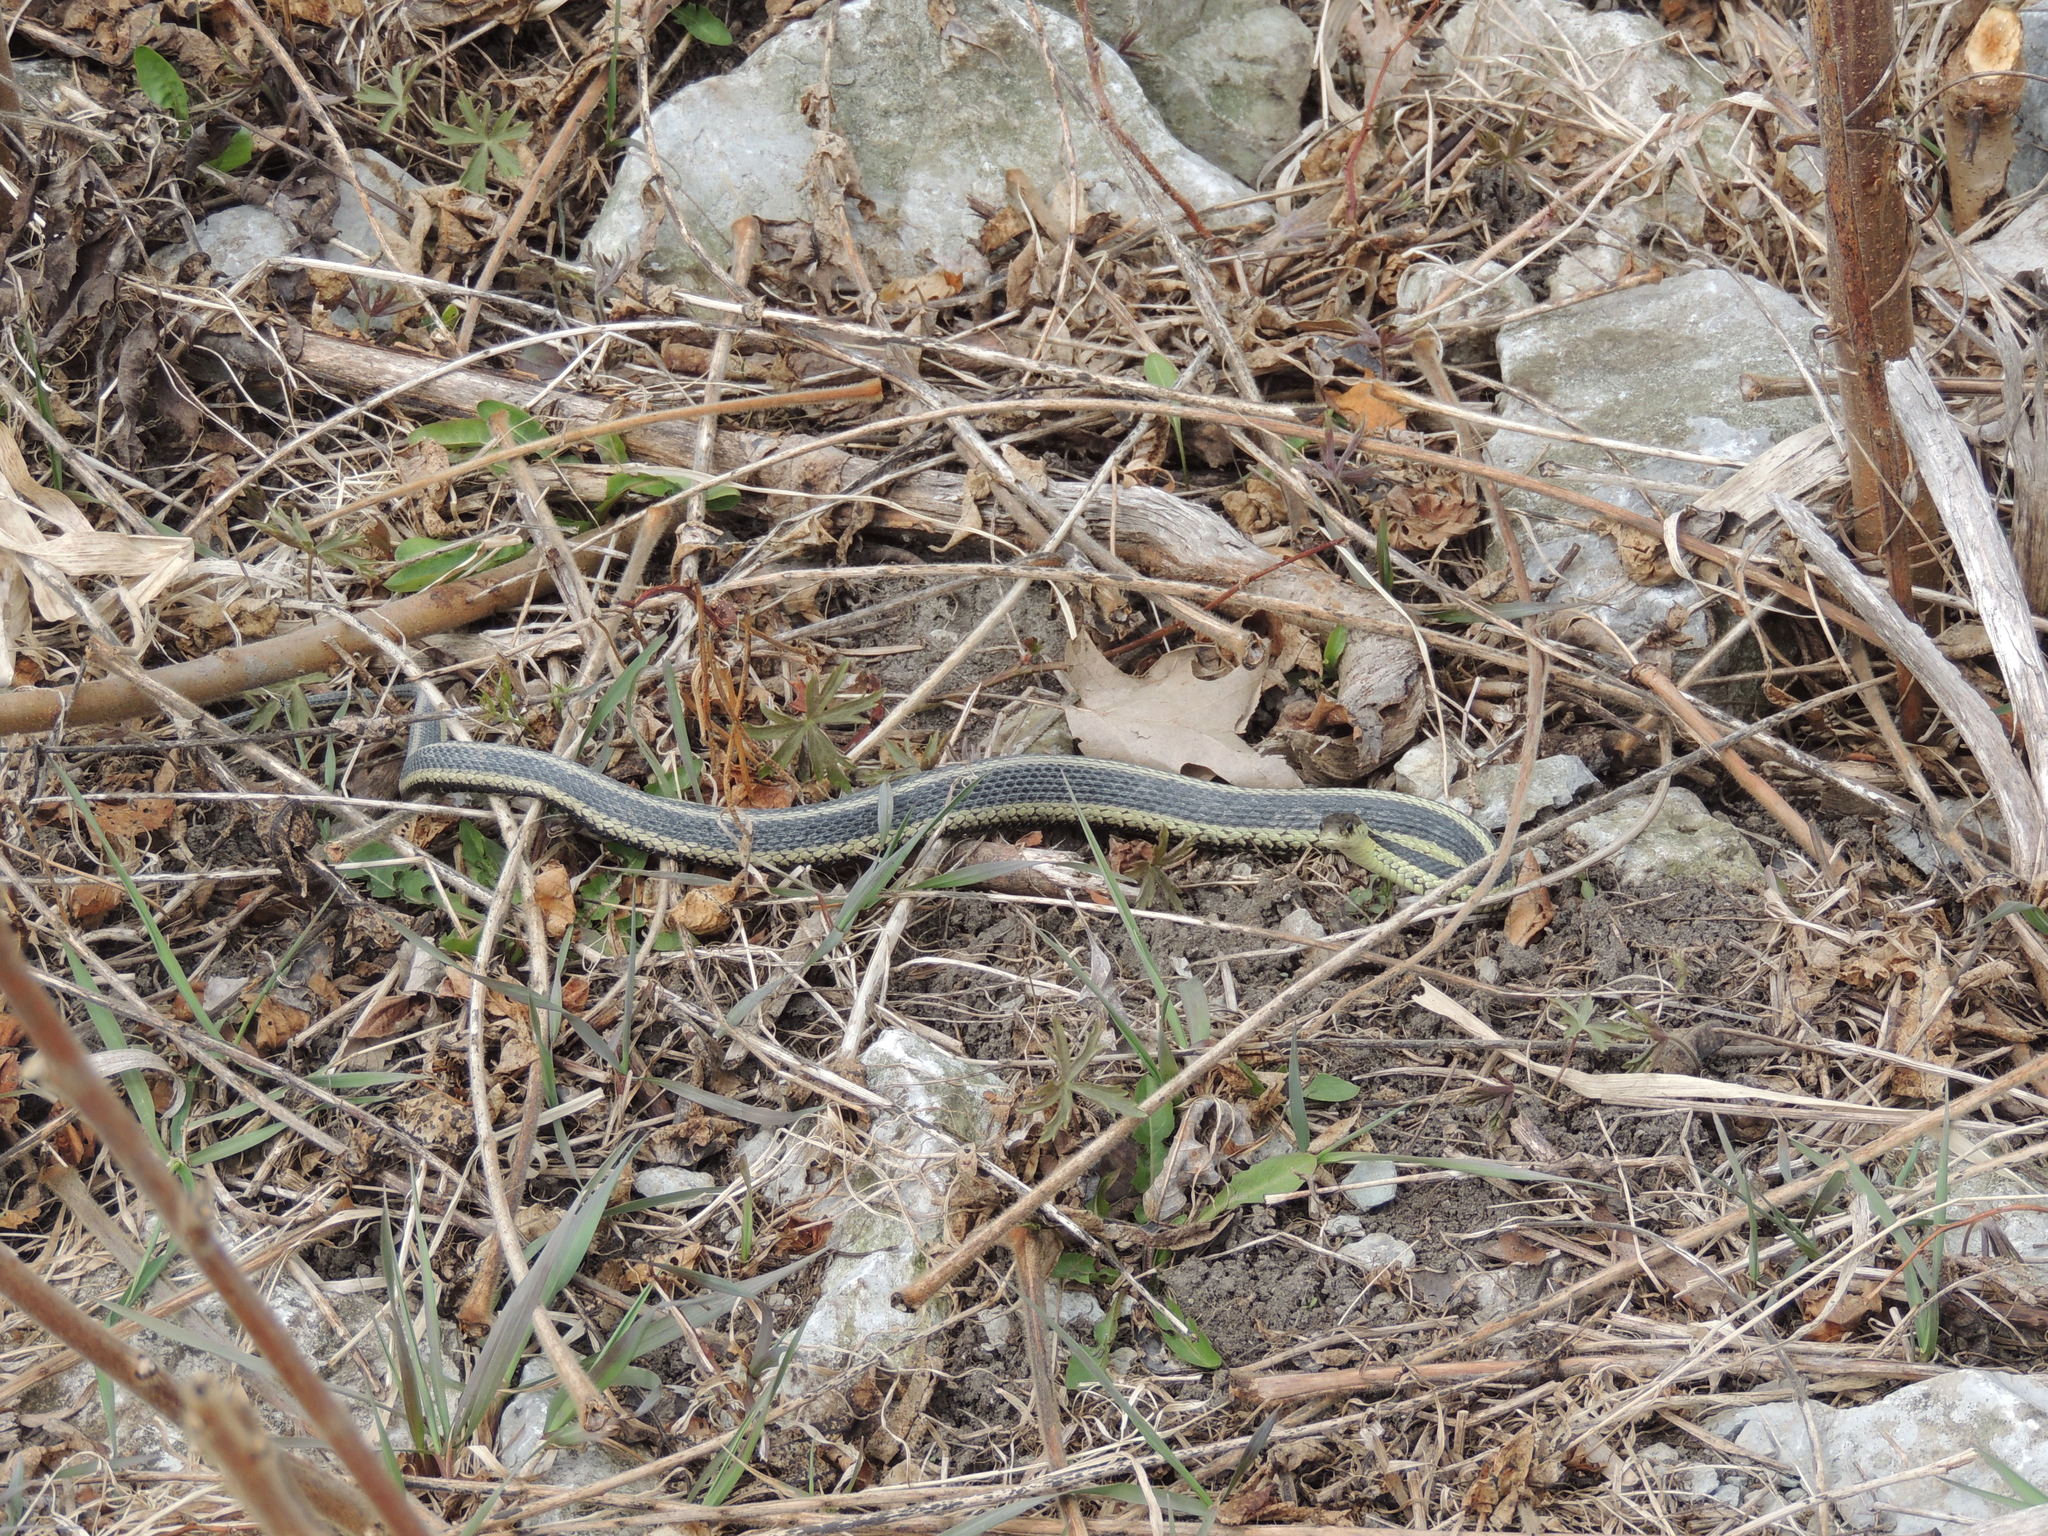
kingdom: Animalia
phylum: Chordata
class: Squamata
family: Colubridae
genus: Thamnophis
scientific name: Thamnophis sirtalis
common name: Common garter snake
